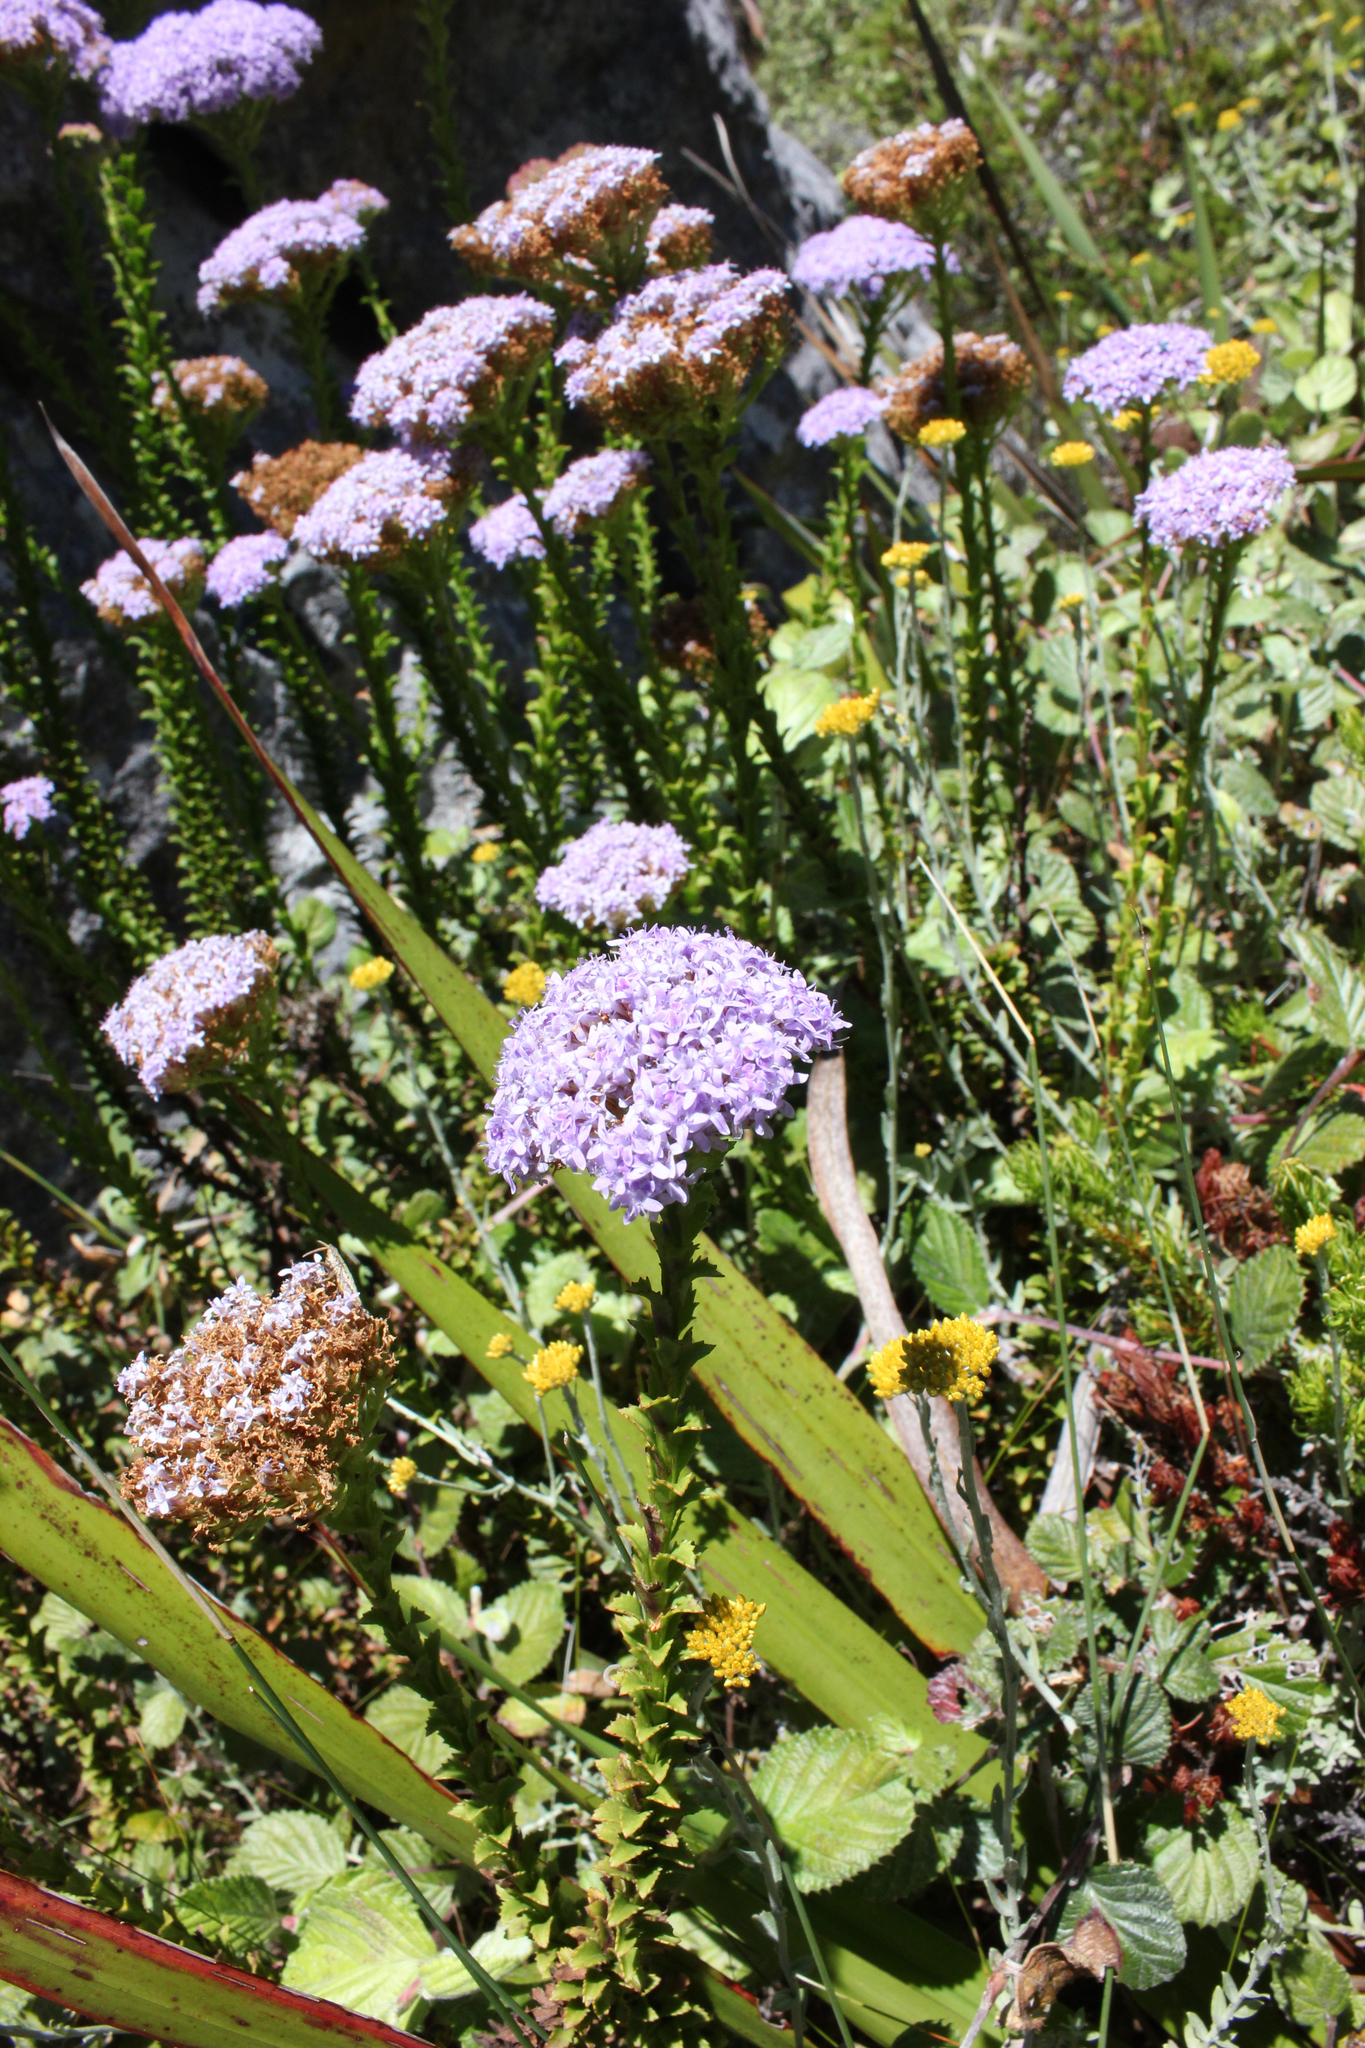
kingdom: Plantae
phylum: Tracheophyta
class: Magnoliopsida
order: Lamiales
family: Scrophulariaceae
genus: Pseudoselago
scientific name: Pseudoselago serrata
